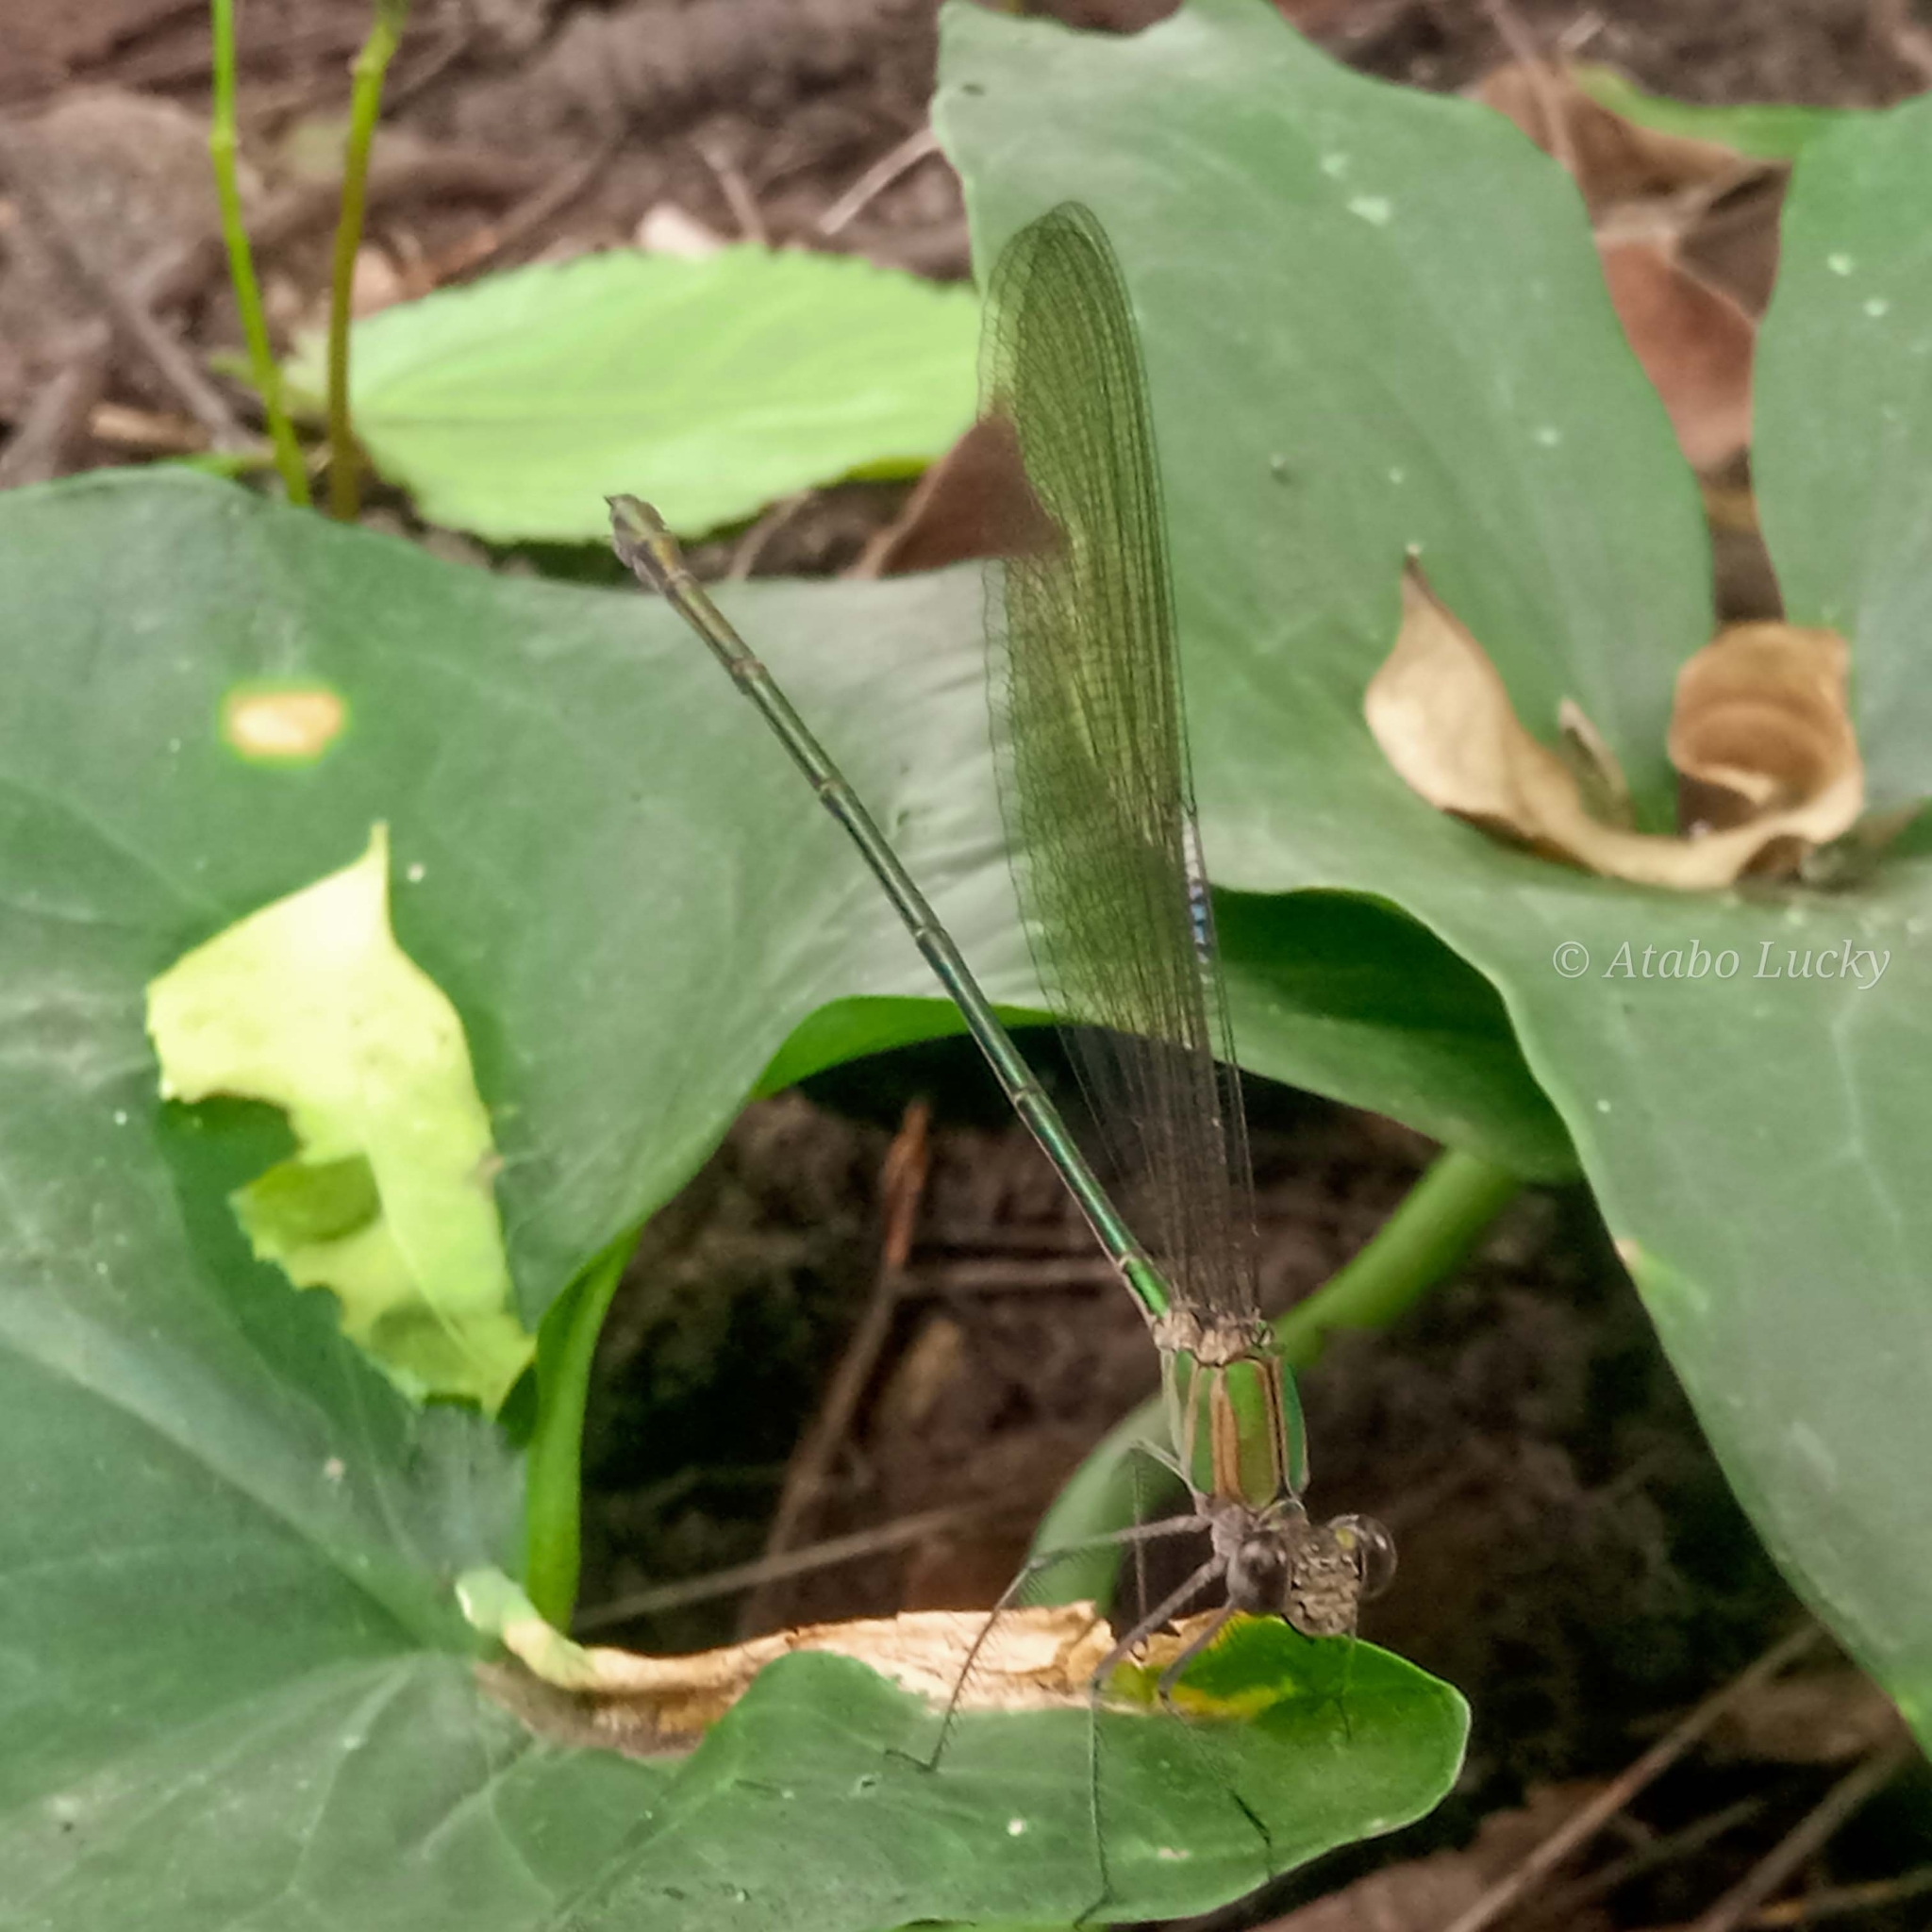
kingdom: Animalia
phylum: Arthropoda
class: Insecta
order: Odonata
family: Calopterygidae
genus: Phaon
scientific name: Phaon iridipennis
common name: Glistening demoiselle
